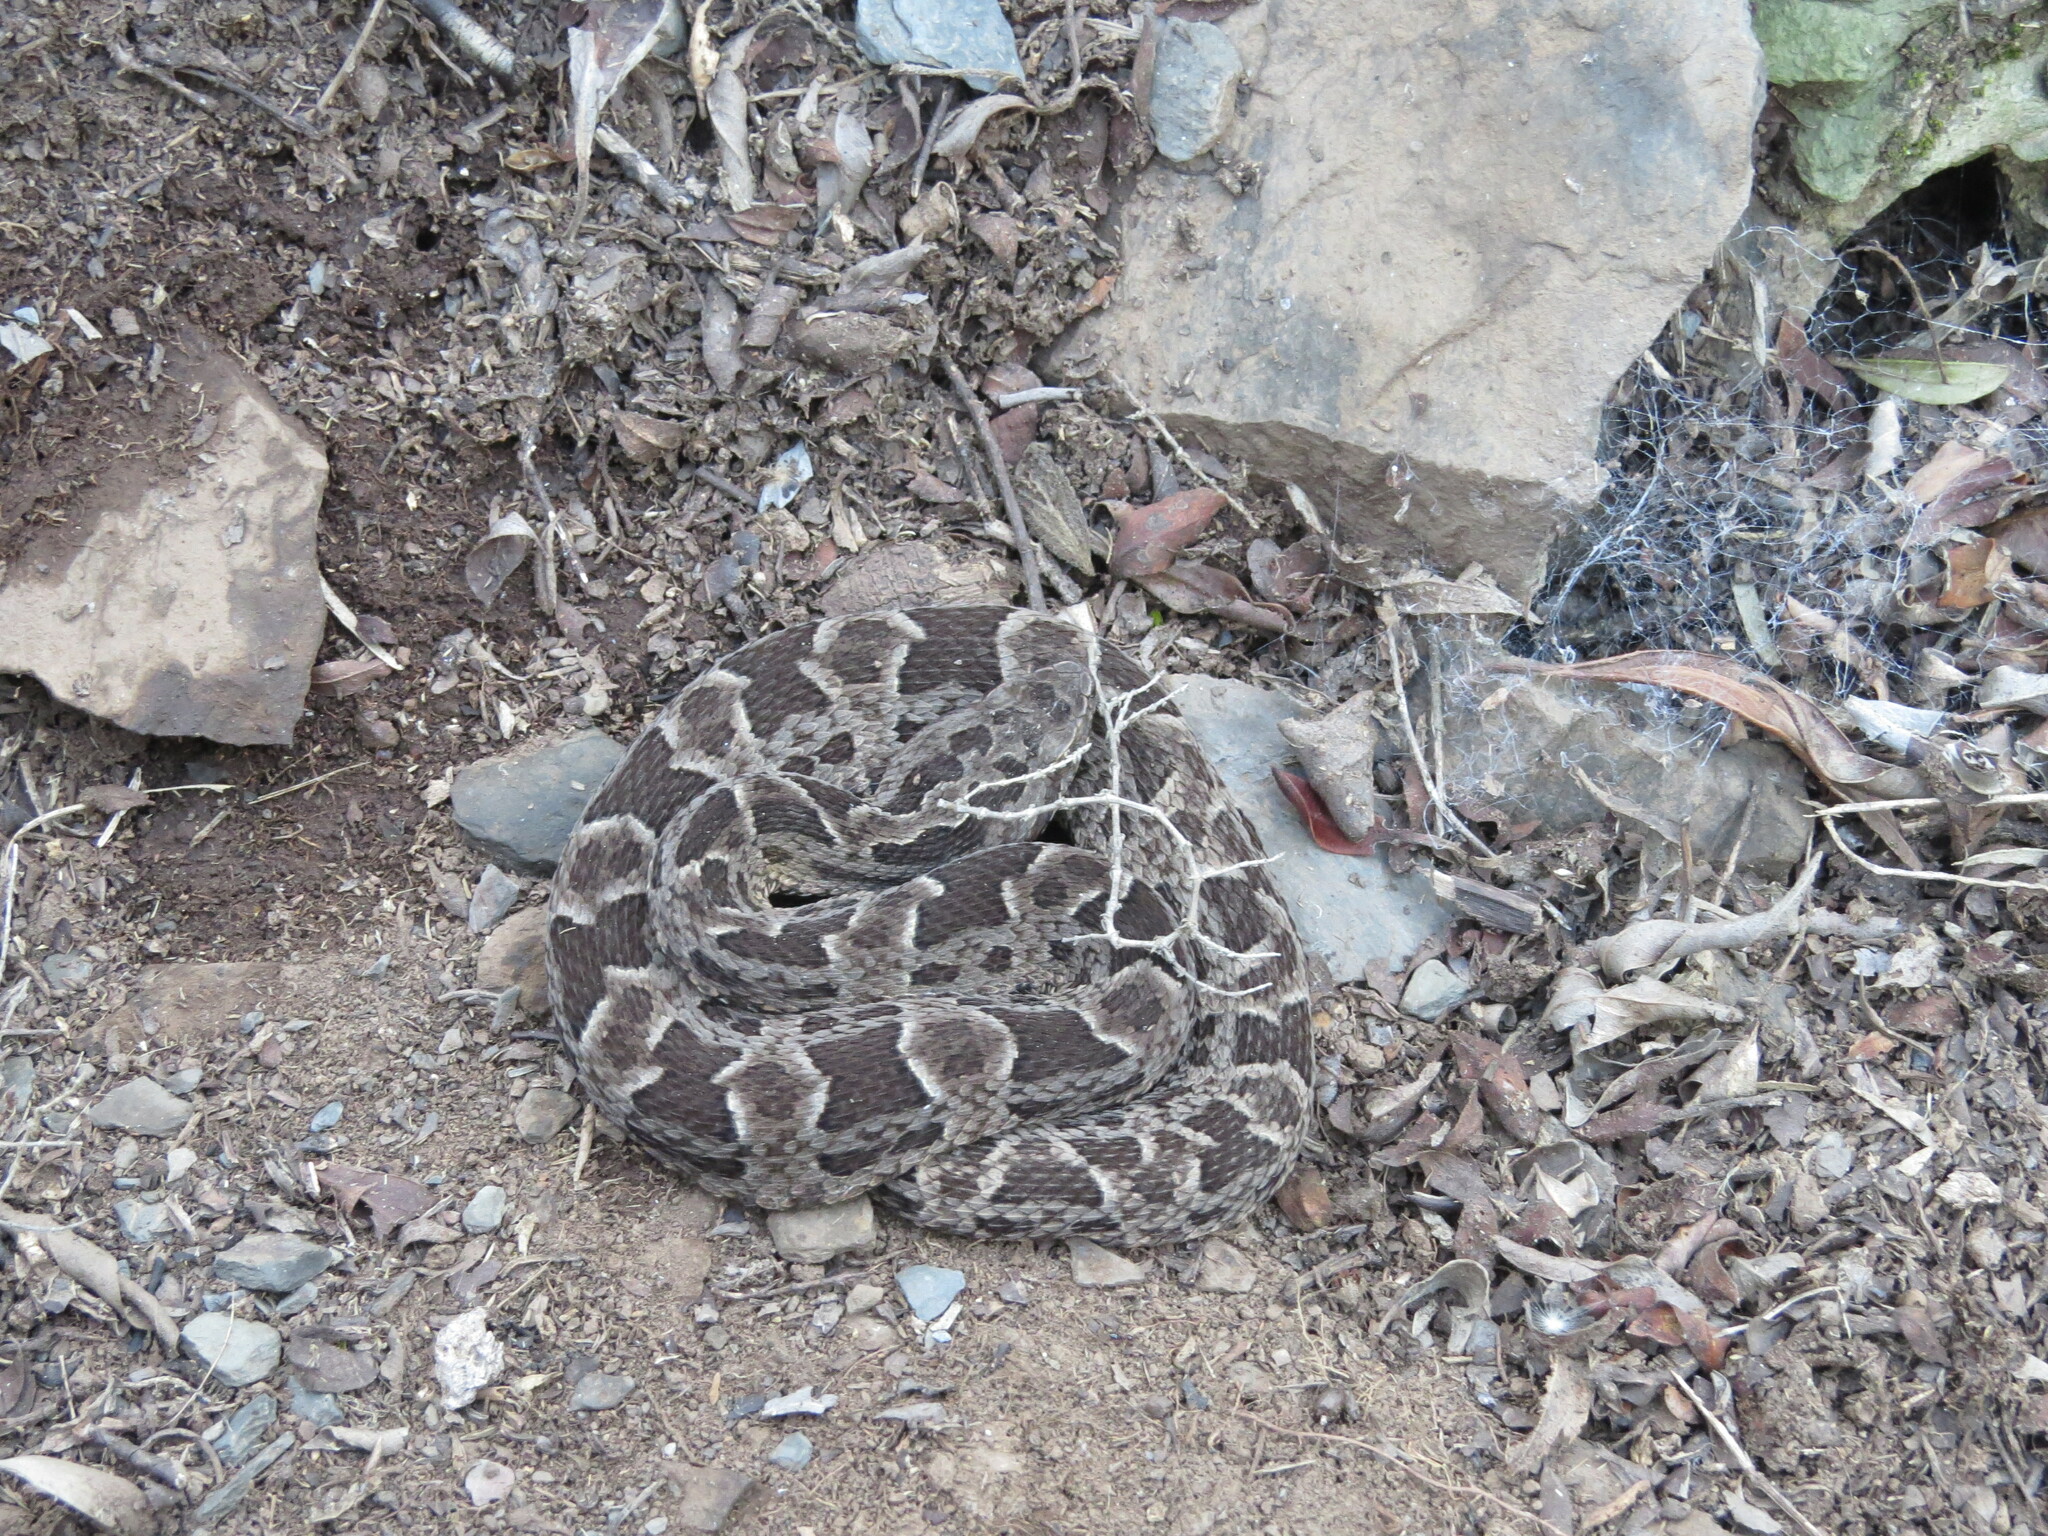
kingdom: Animalia
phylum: Chordata
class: Squamata
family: Viperidae
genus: Bothrops
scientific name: Bothrops pubescens
